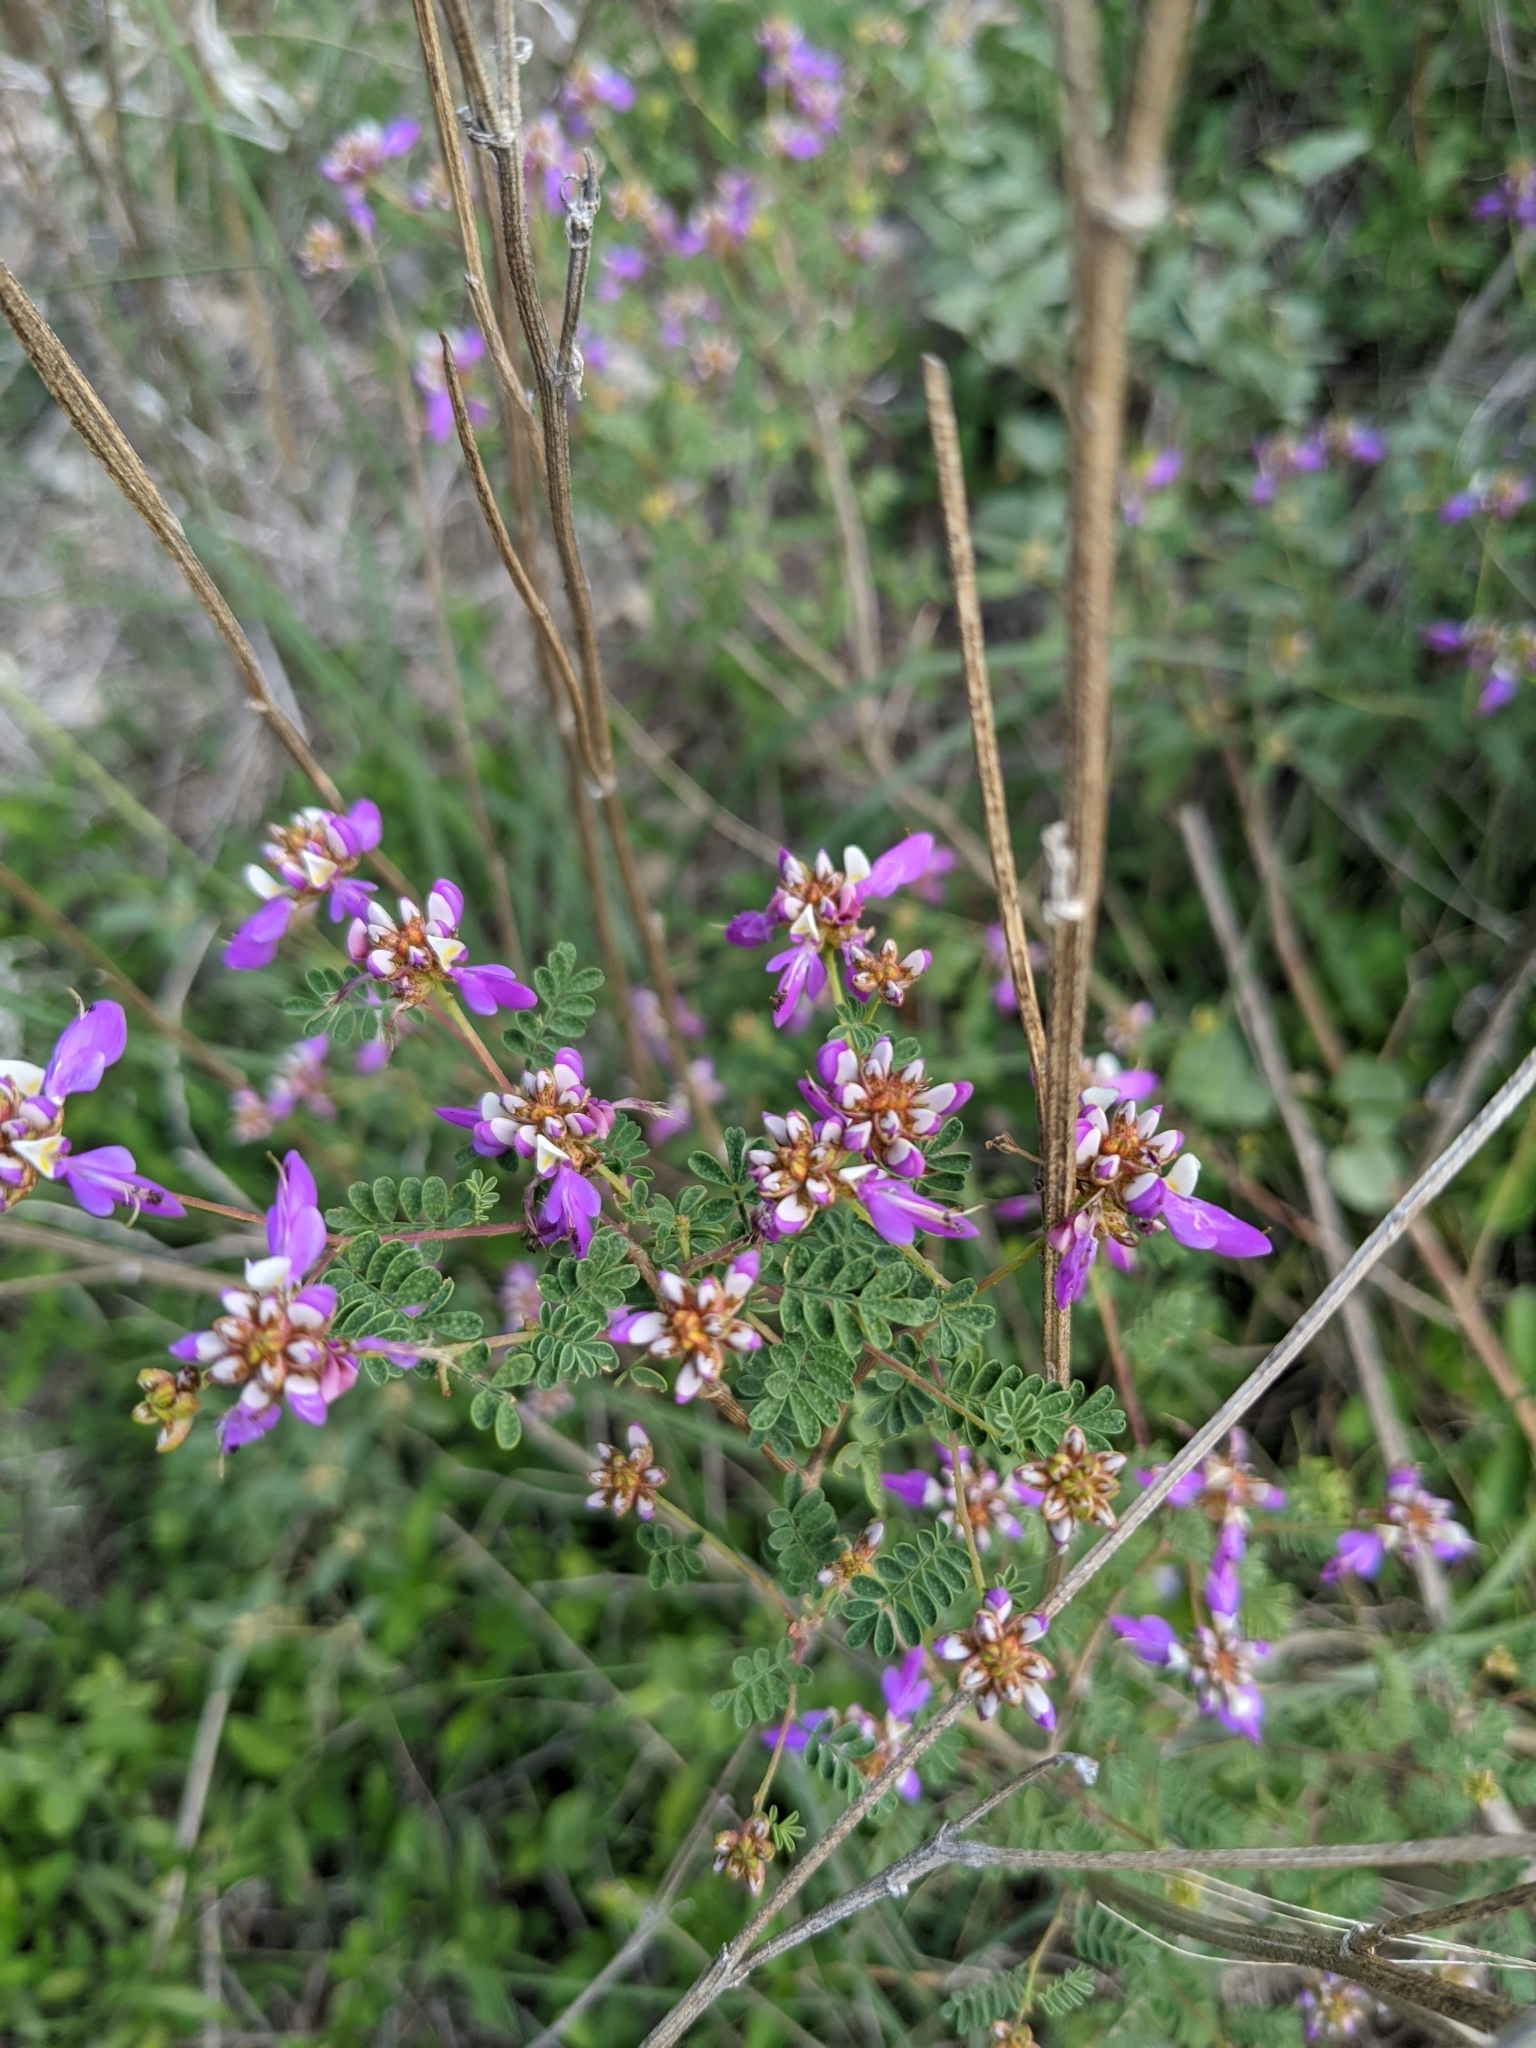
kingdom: Plantae
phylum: Tracheophyta
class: Magnoliopsida
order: Fabales
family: Fabaceae
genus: Dalea
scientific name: Dalea frutescens
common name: Black dalea
